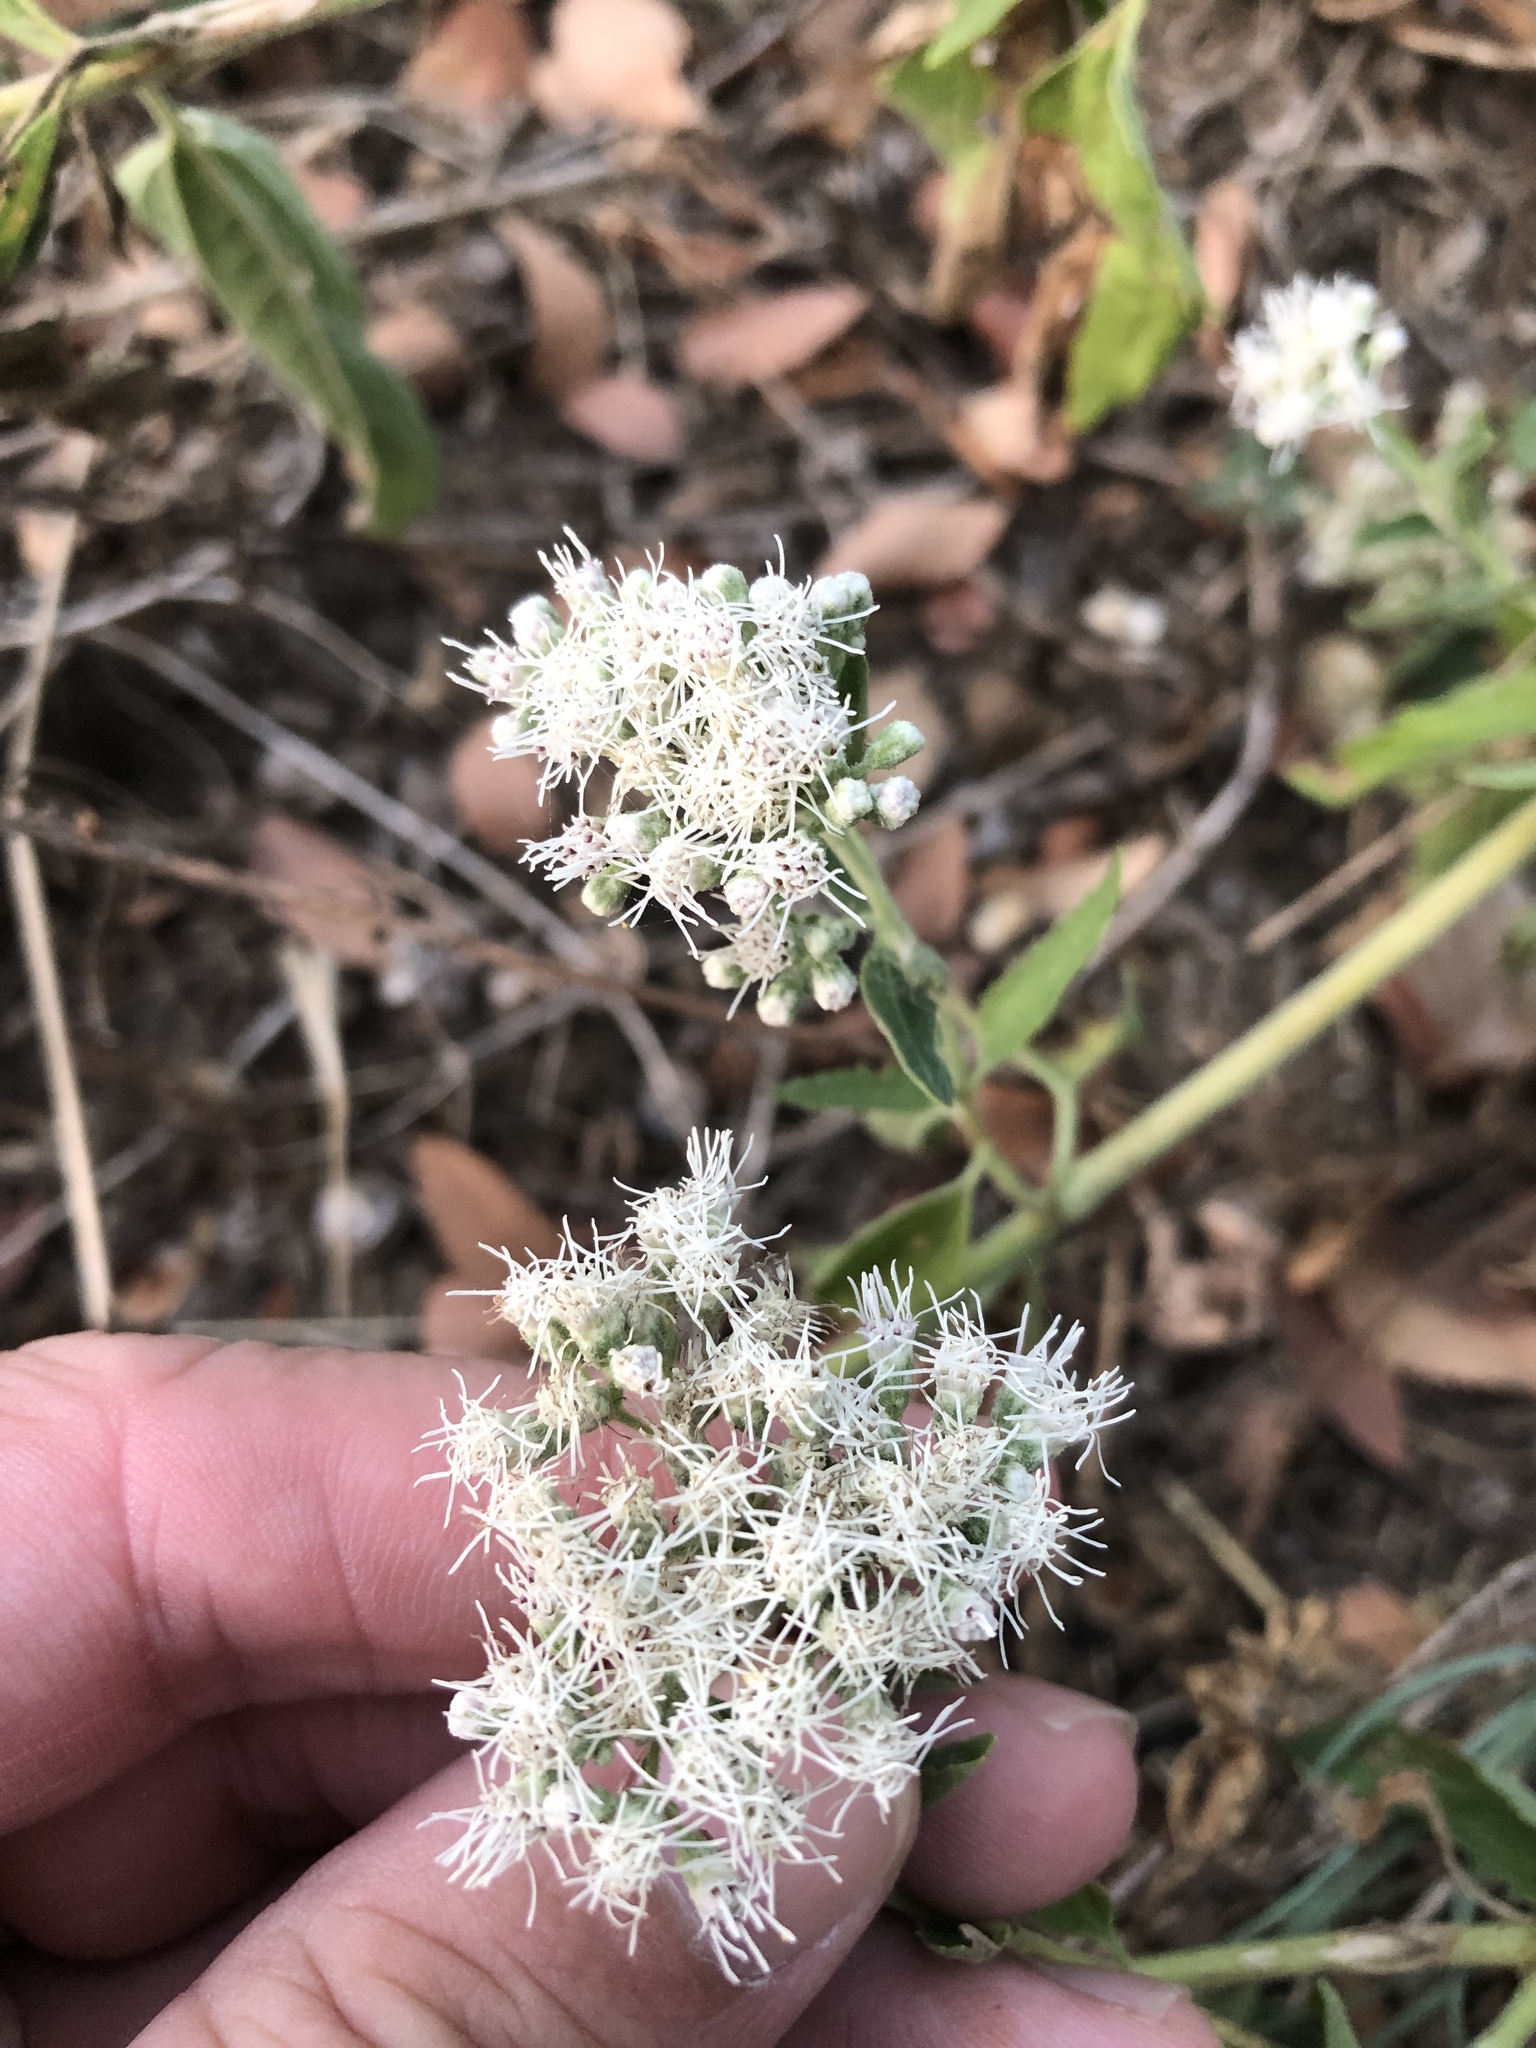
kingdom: Plantae
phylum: Tracheophyta
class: Magnoliopsida
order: Asterales
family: Asteraceae
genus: Eupatorium
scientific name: Eupatorium serotinum
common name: Late boneset
